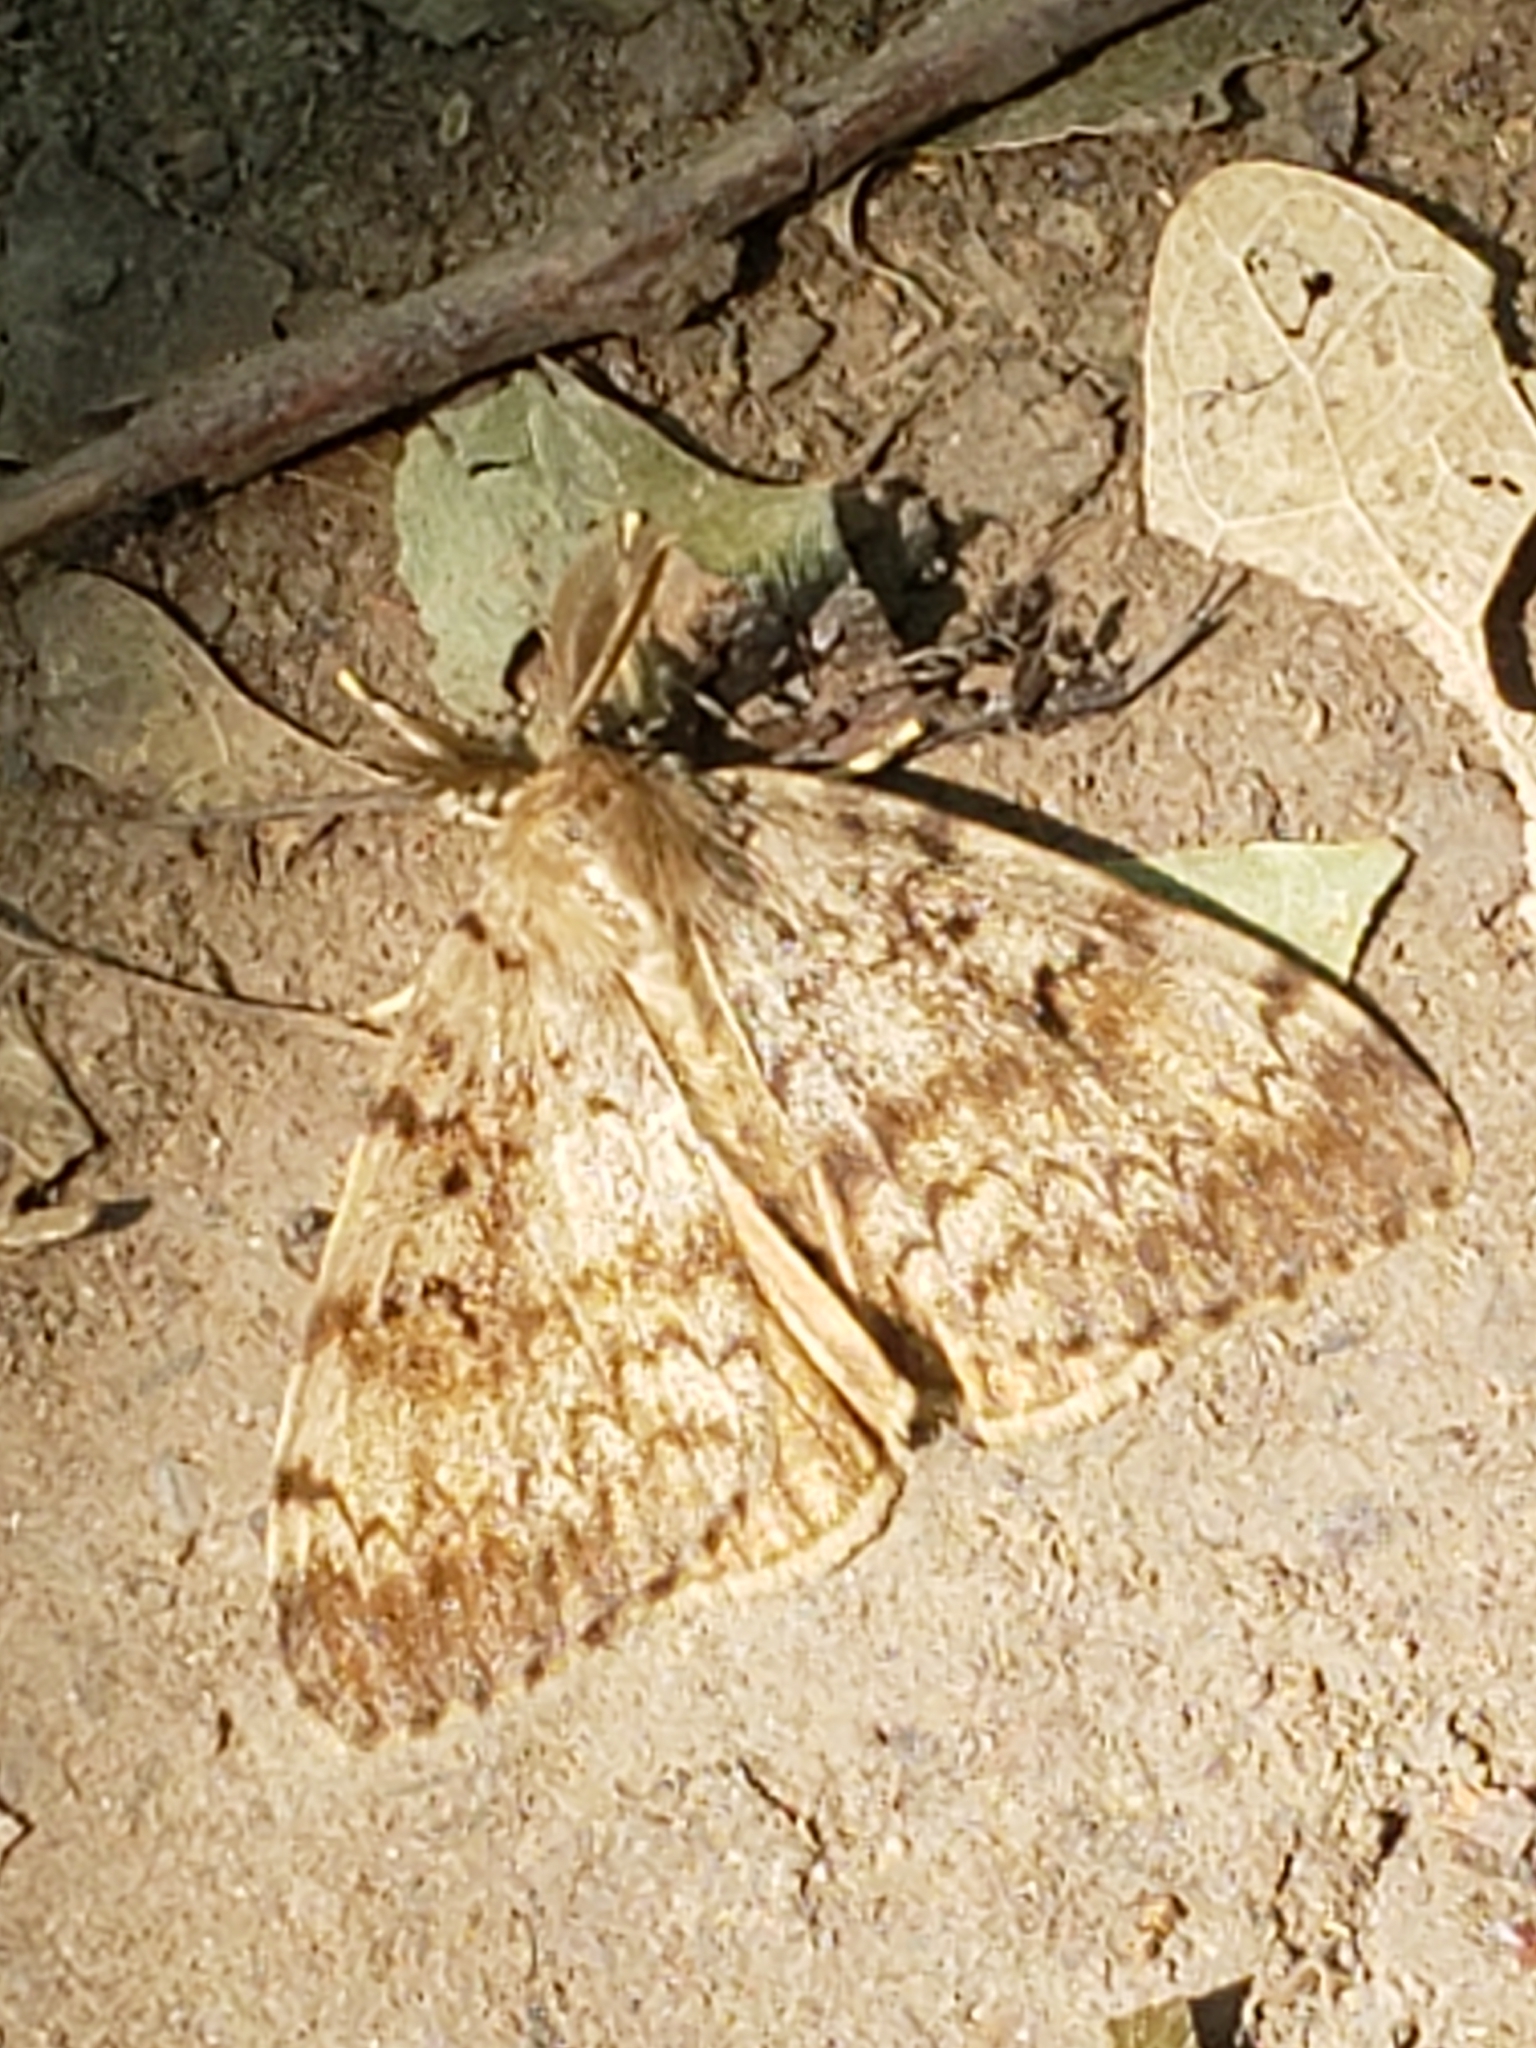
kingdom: Animalia
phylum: Arthropoda
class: Insecta
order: Lepidoptera
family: Erebidae
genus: Lymantria
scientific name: Lymantria dispar
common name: Gypsy moth
